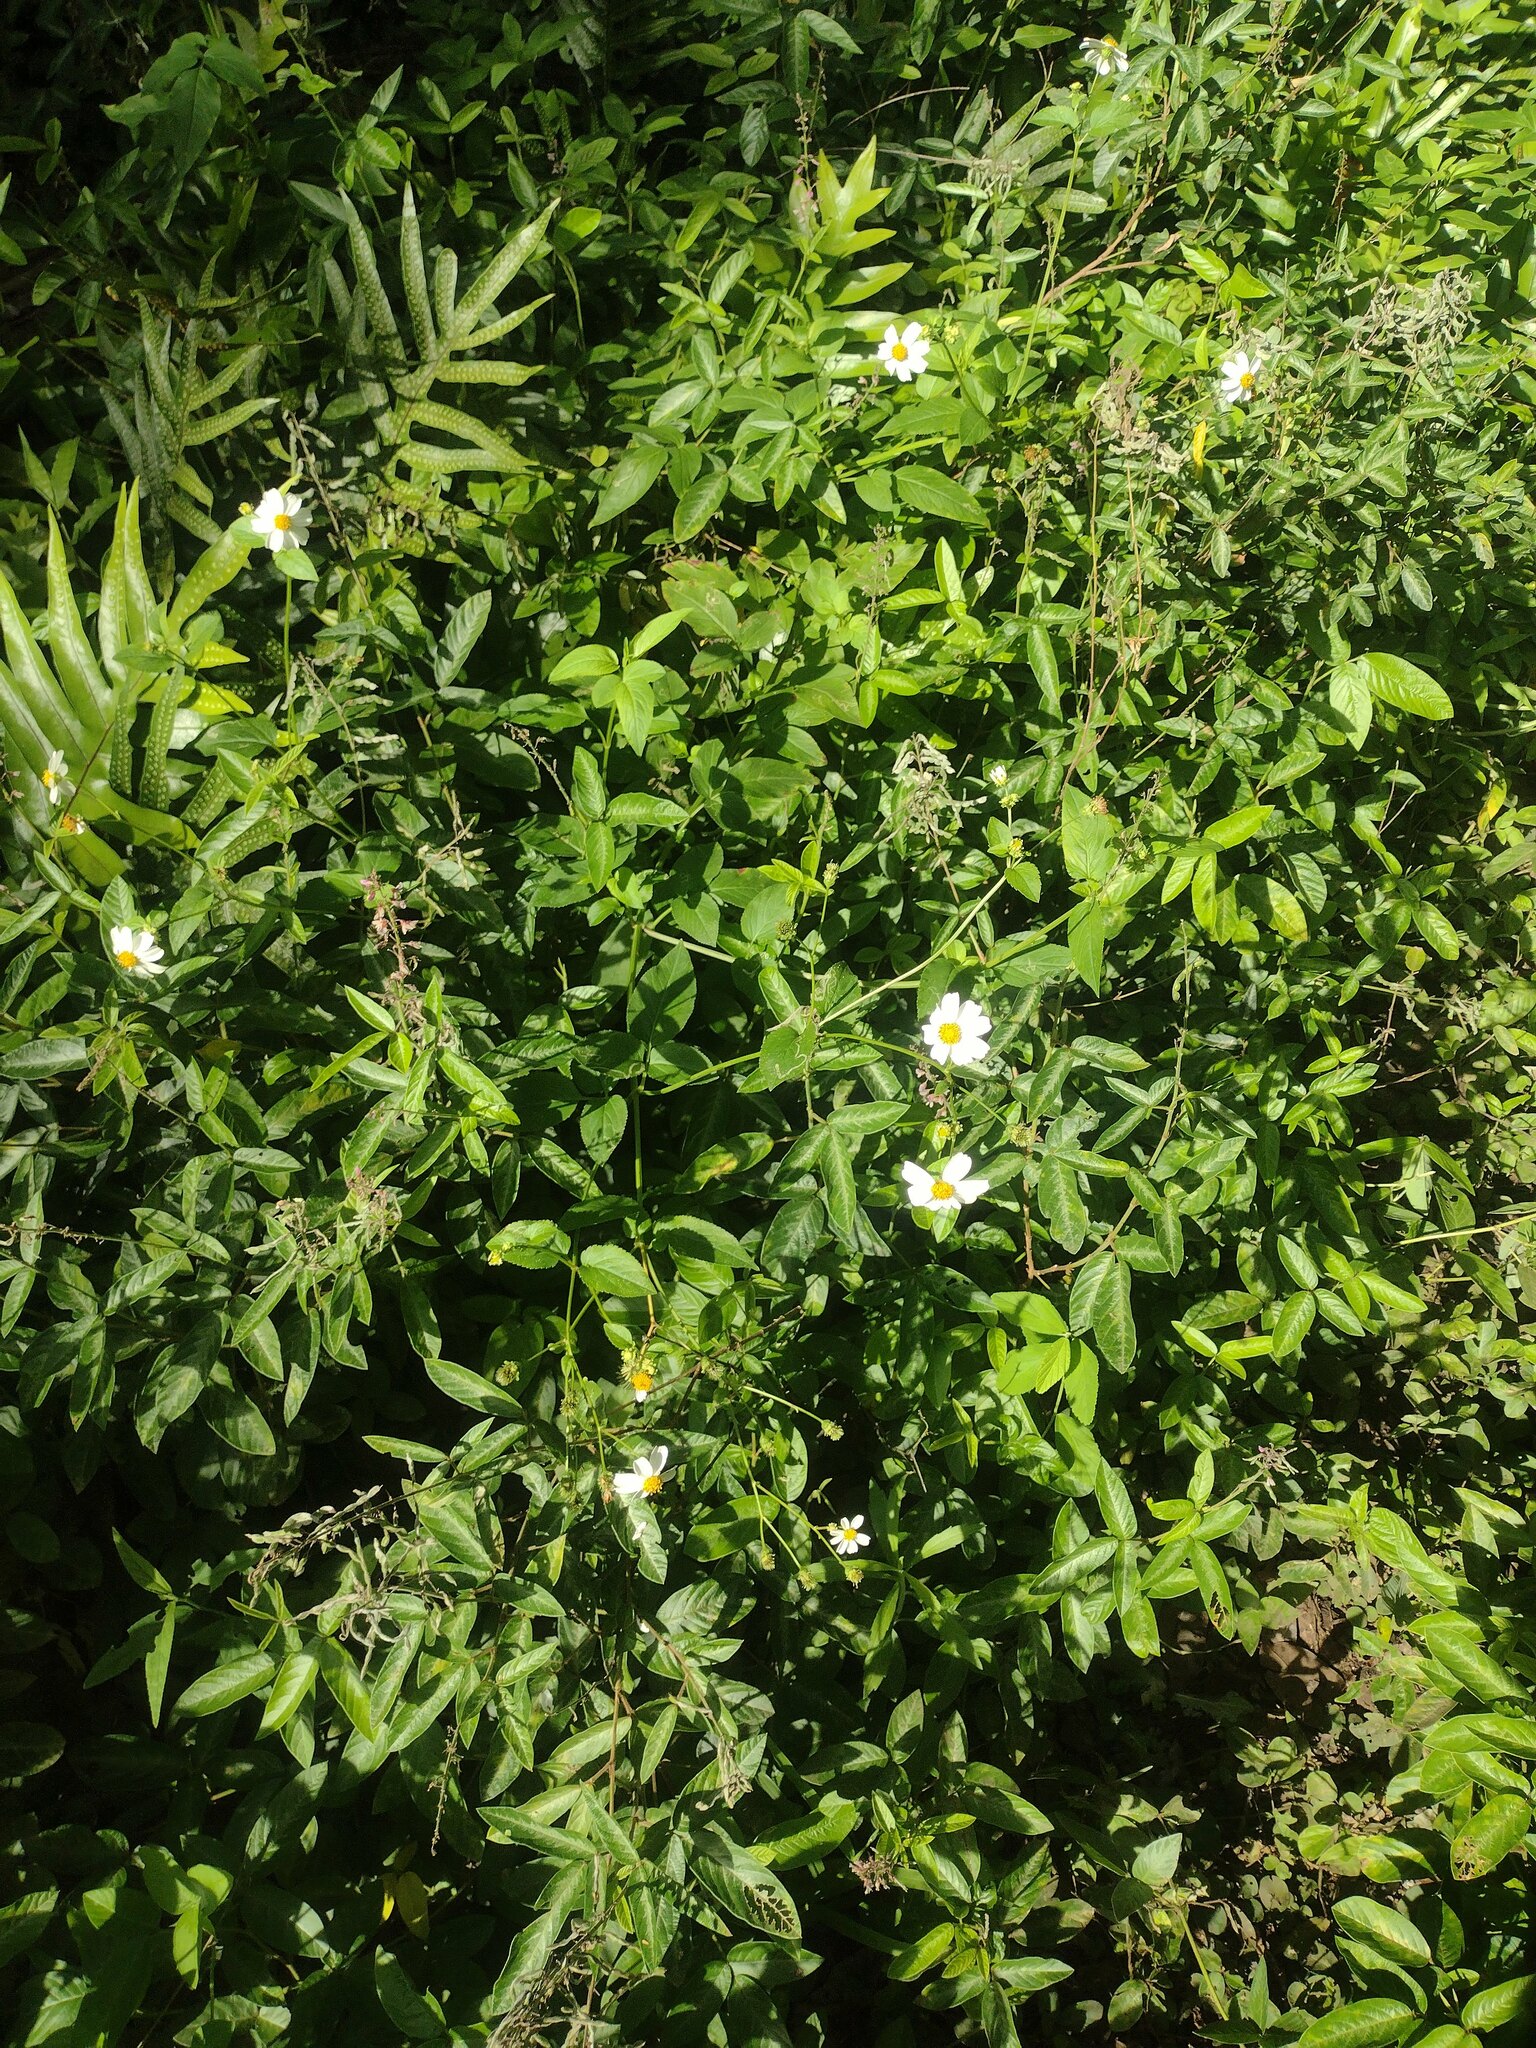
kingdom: Plantae
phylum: Tracheophyta
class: Magnoliopsida
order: Asterales
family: Asteraceae
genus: Bidens
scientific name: Bidens alba
